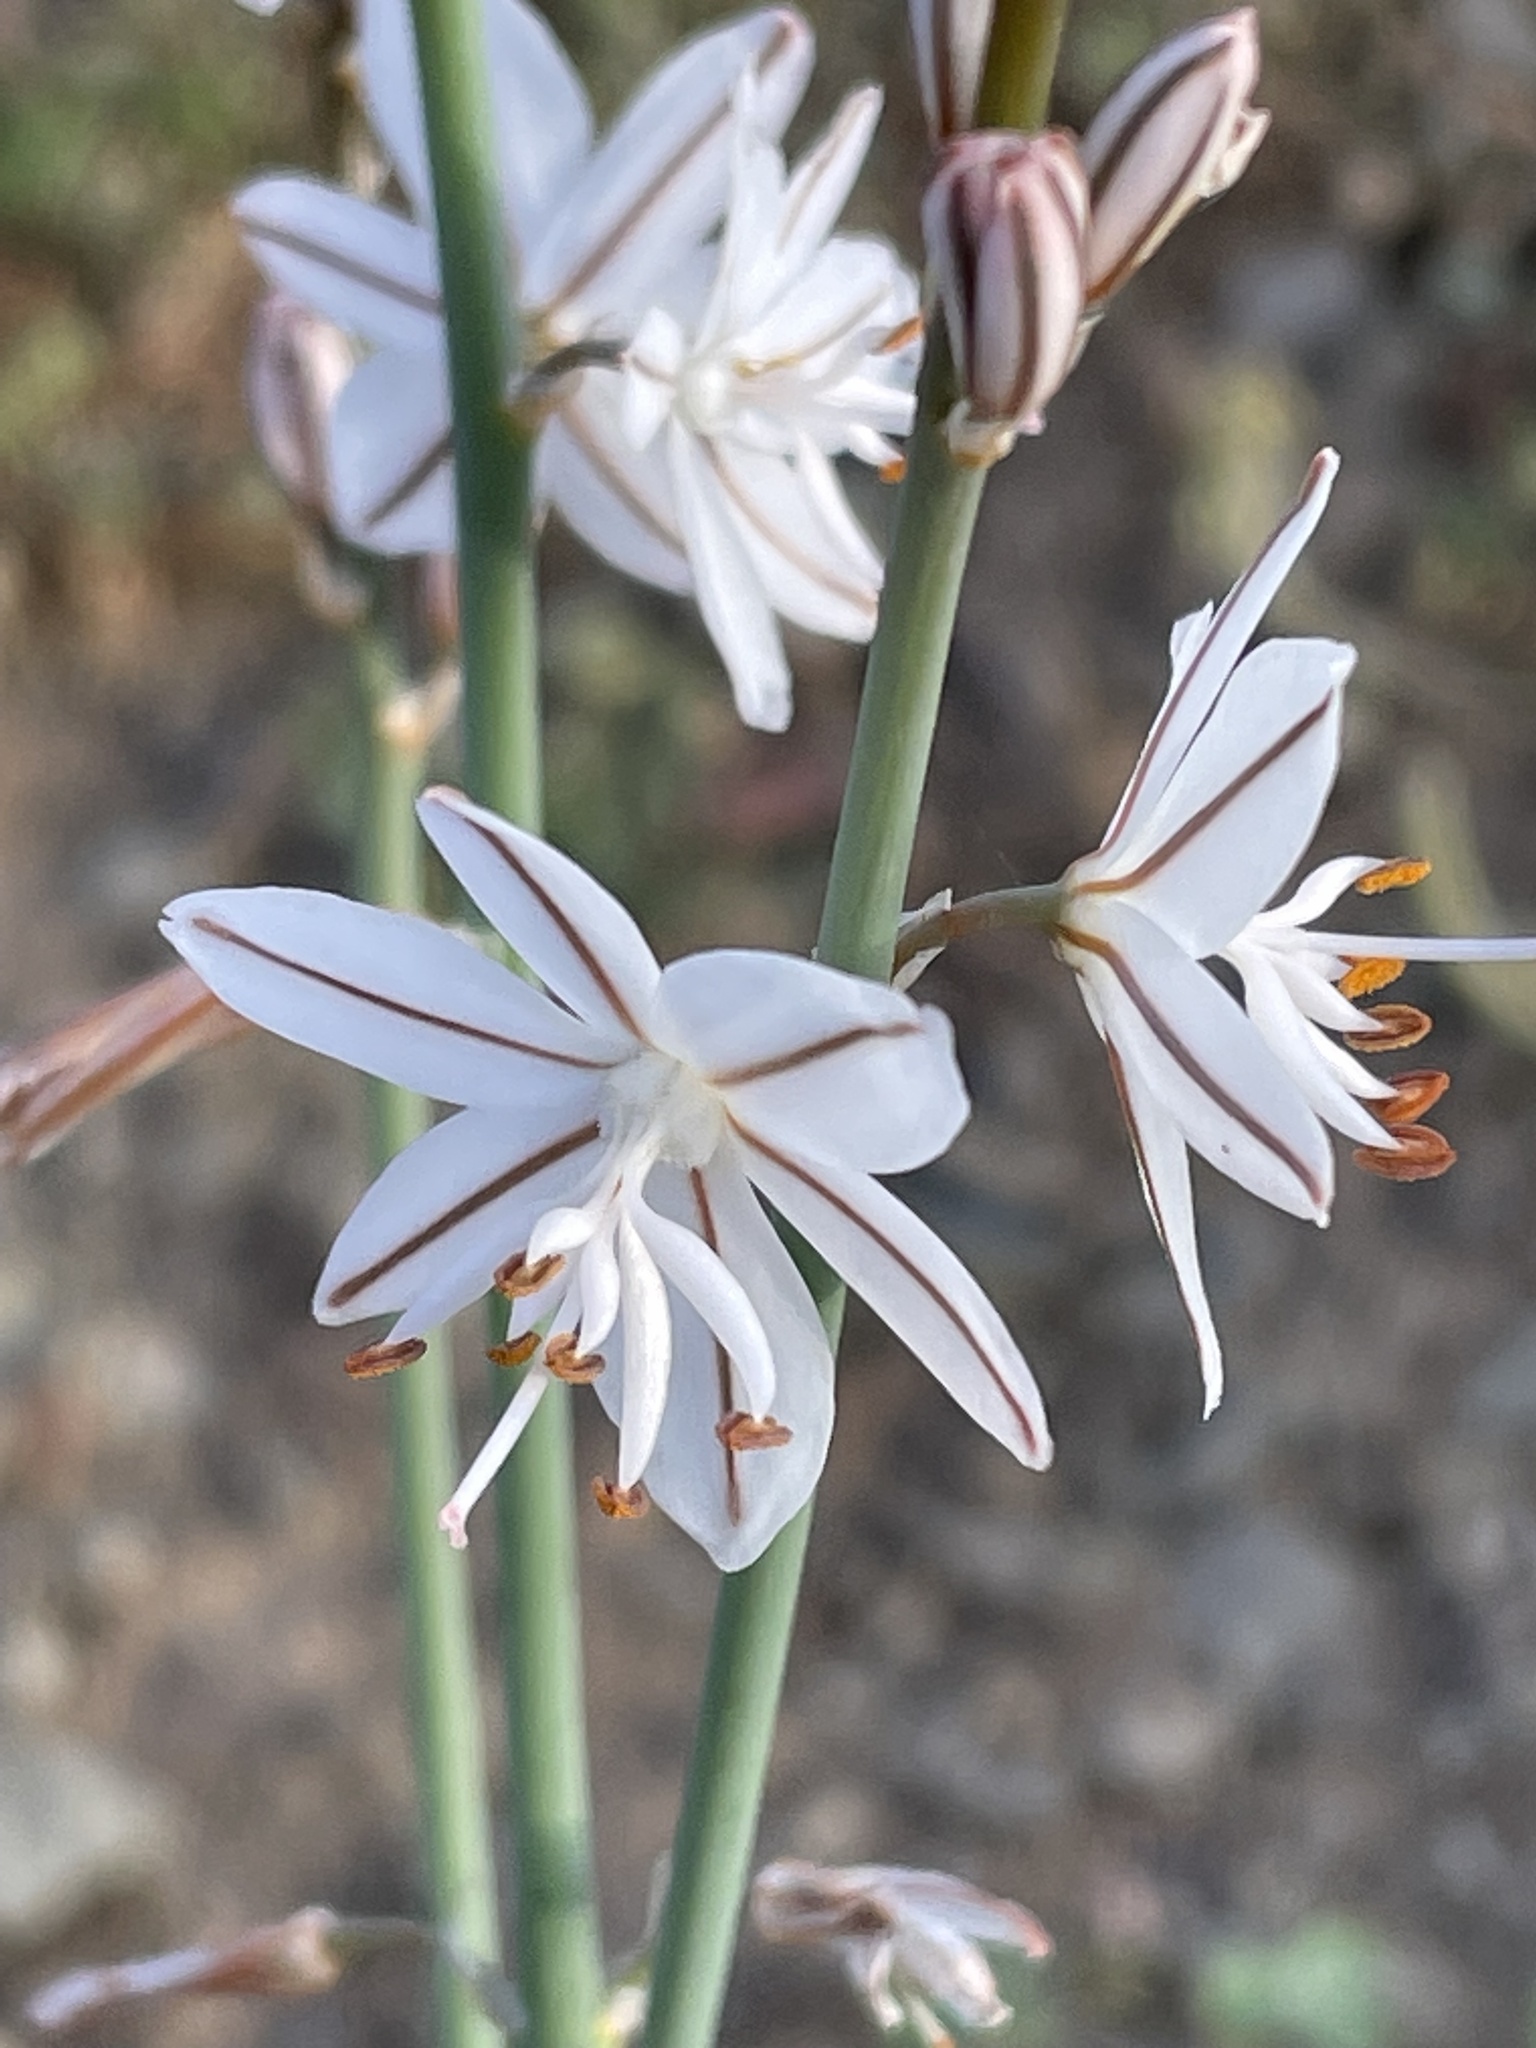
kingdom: Plantae
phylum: Tracheophyta
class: Liliopsida
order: Asparagales
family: Asphodelaceae
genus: Asphodelus
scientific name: Asphodelus ayardii
